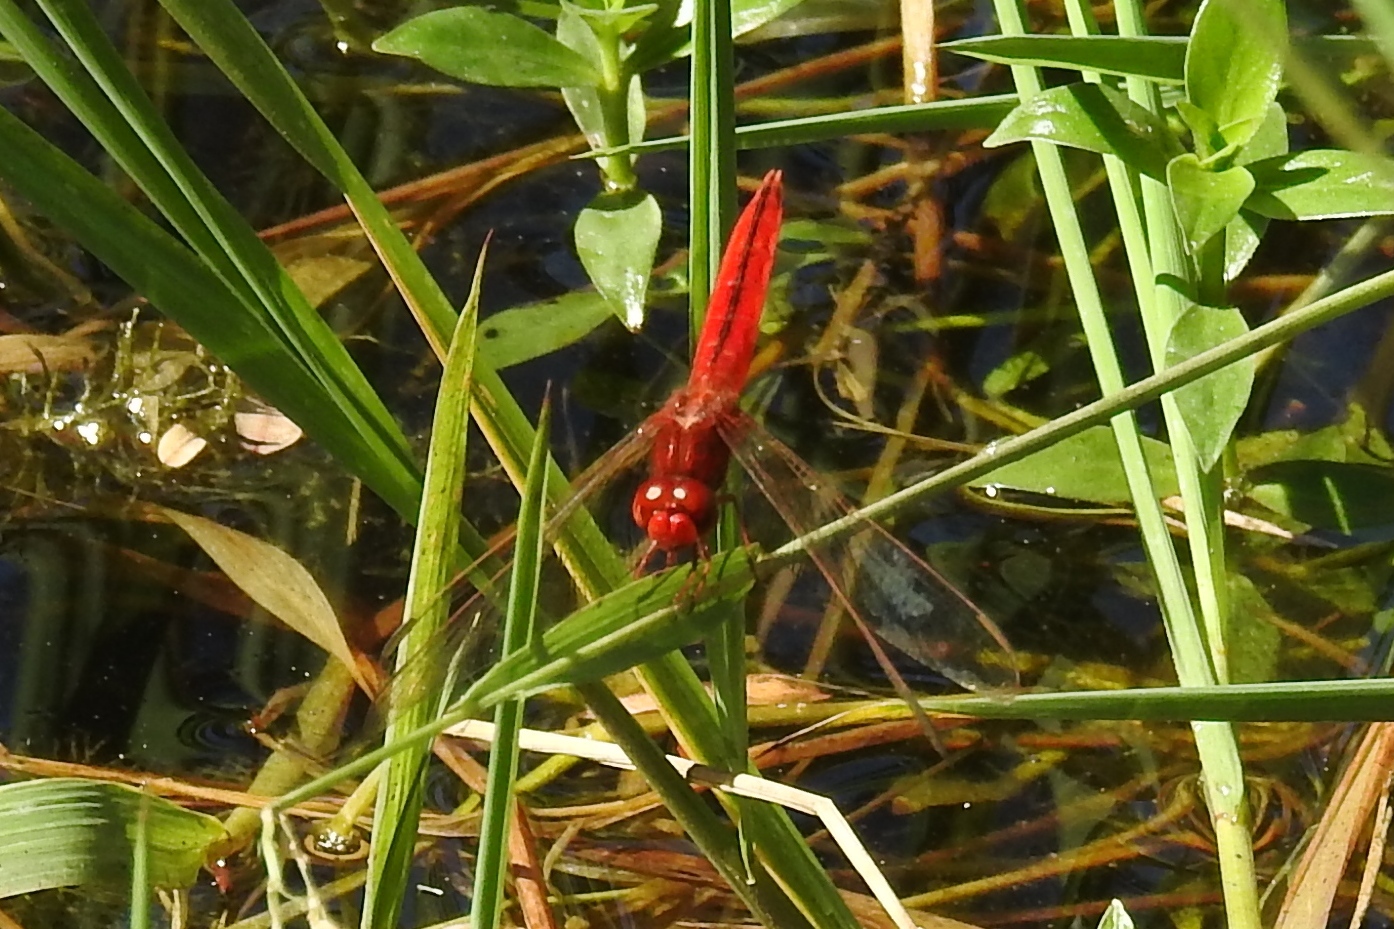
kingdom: Animalia
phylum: Arthropoda
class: Insecta
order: Odonata
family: Libellulidae
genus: Crocothemis
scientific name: Crocothemis servilia
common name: Scarlet skimmer
